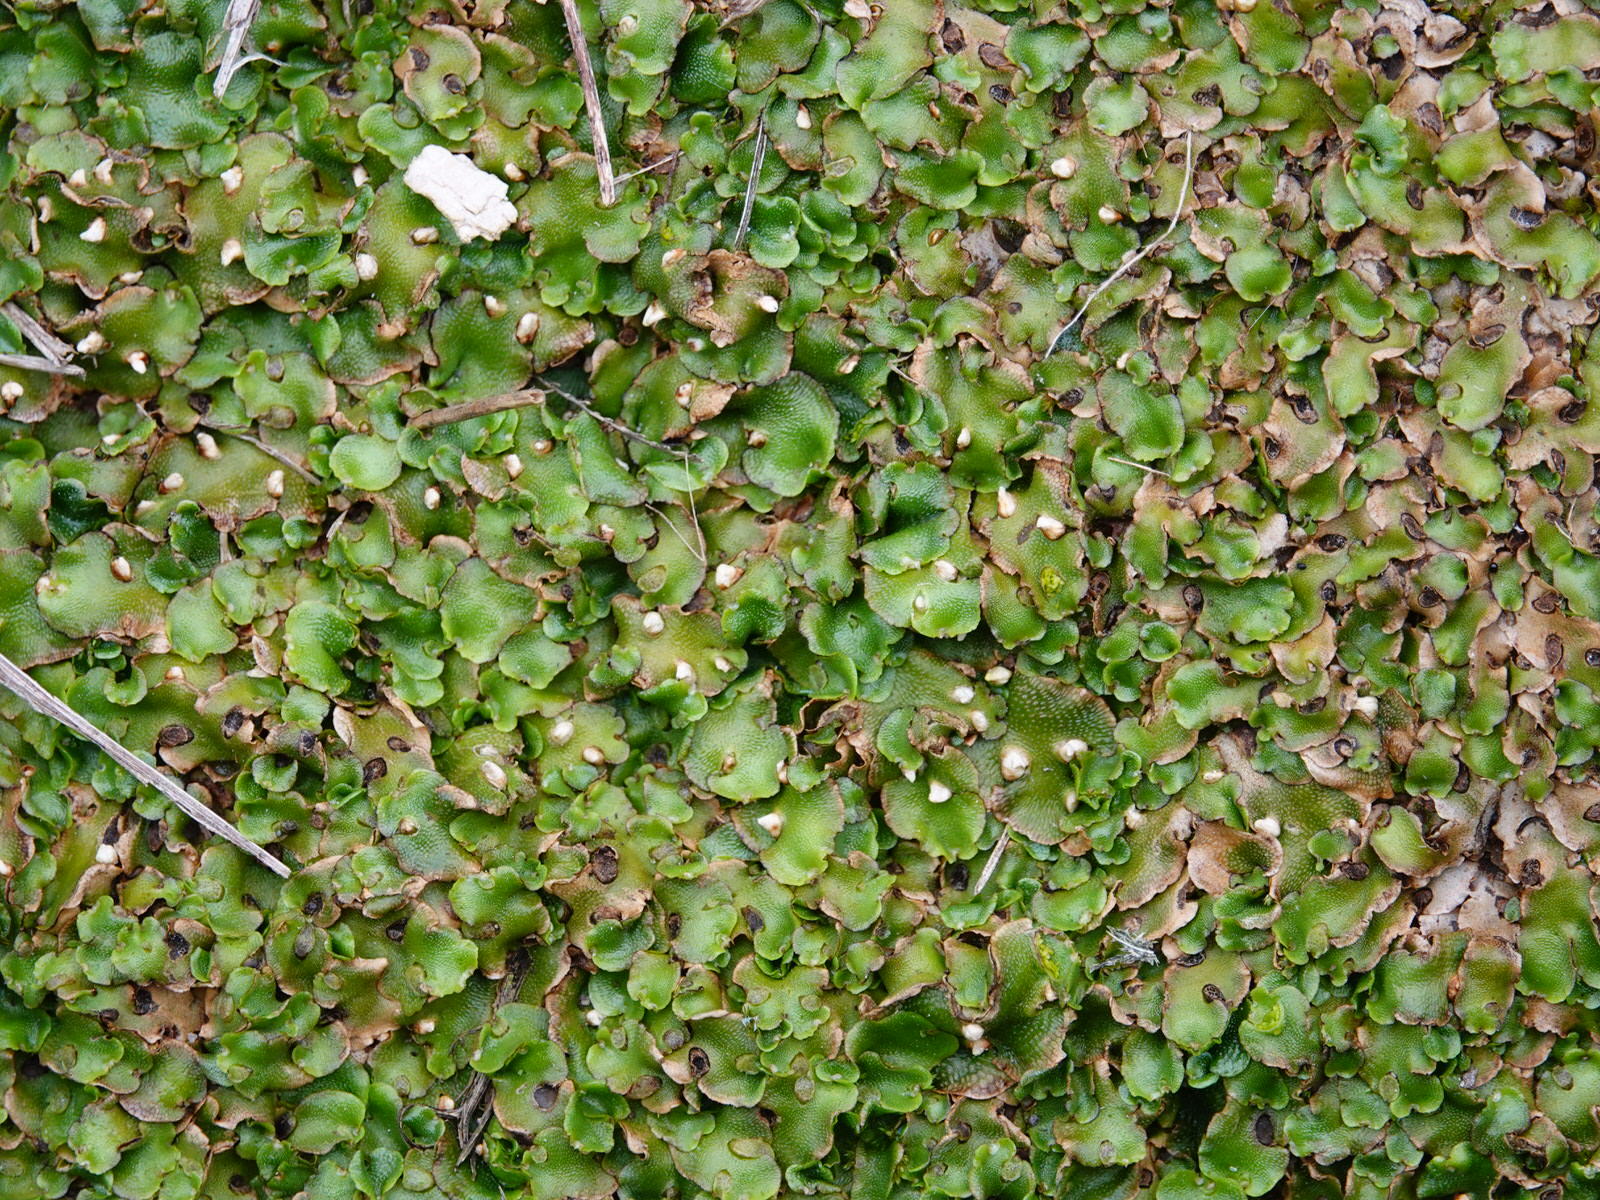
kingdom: Plantae
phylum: Marchantiophyta
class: Marchantiopsida
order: Lunulariales
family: Lunulariaceae
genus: Lunularia
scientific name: Lunularia cruciata
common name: Crescent-cup liverwort
